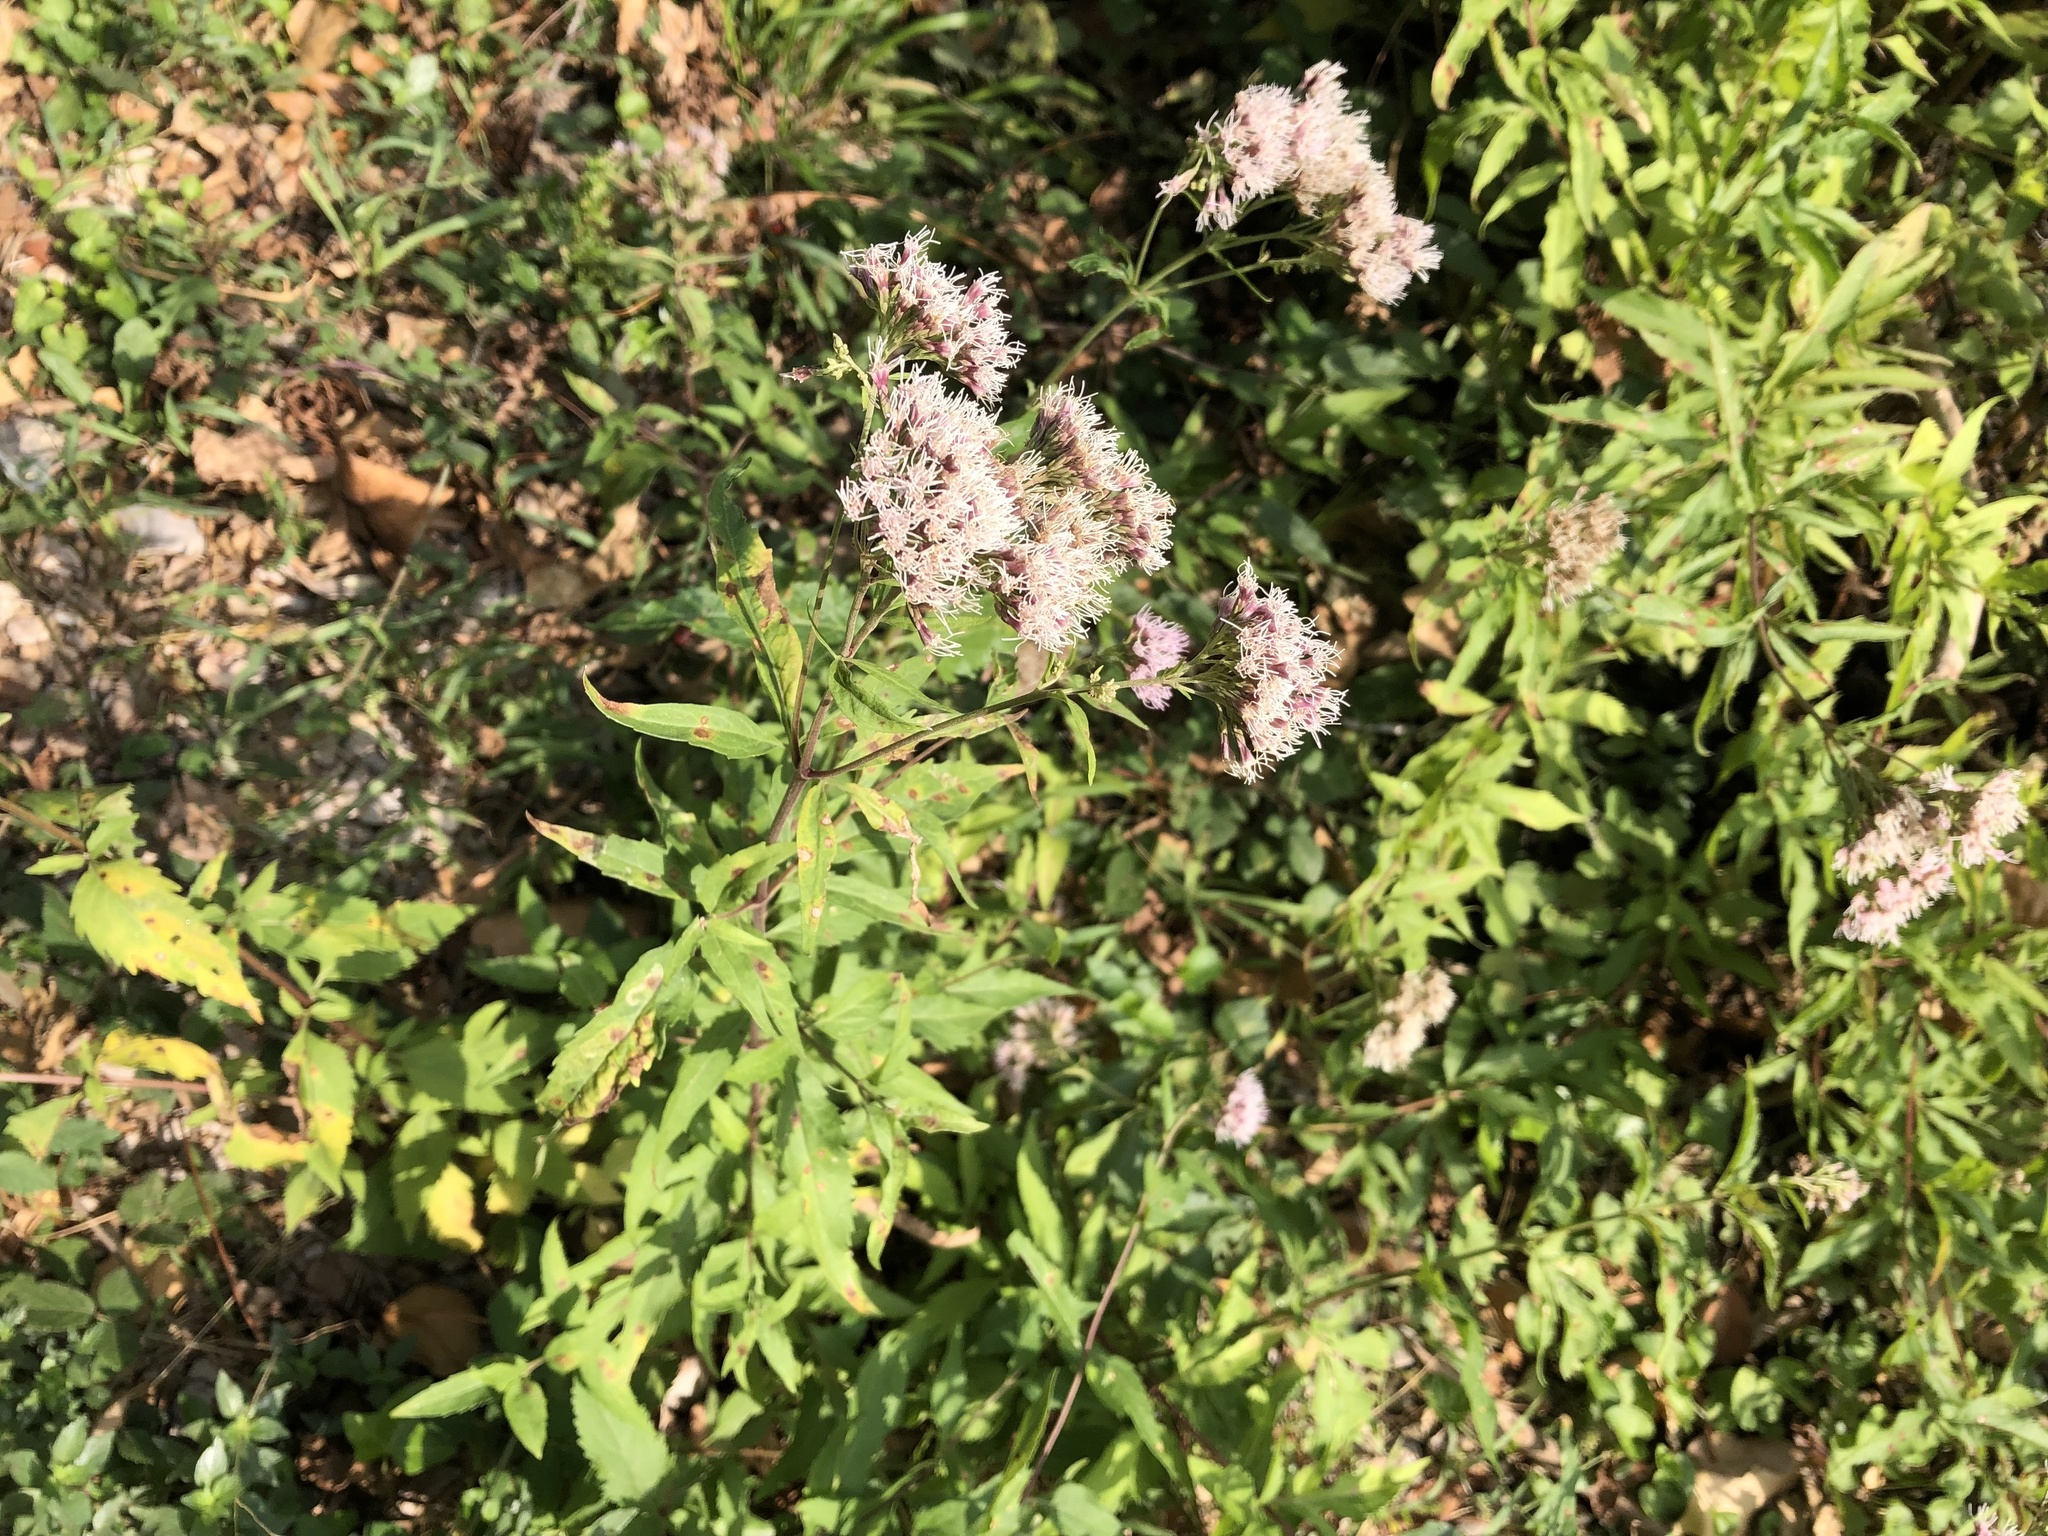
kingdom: Plantae
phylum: Tracheophyta
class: Magnoliopsida
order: Asterales
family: Asteraceae
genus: Eupatorium
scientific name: Eupatorium cannabinum
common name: Hemp-agrimony
